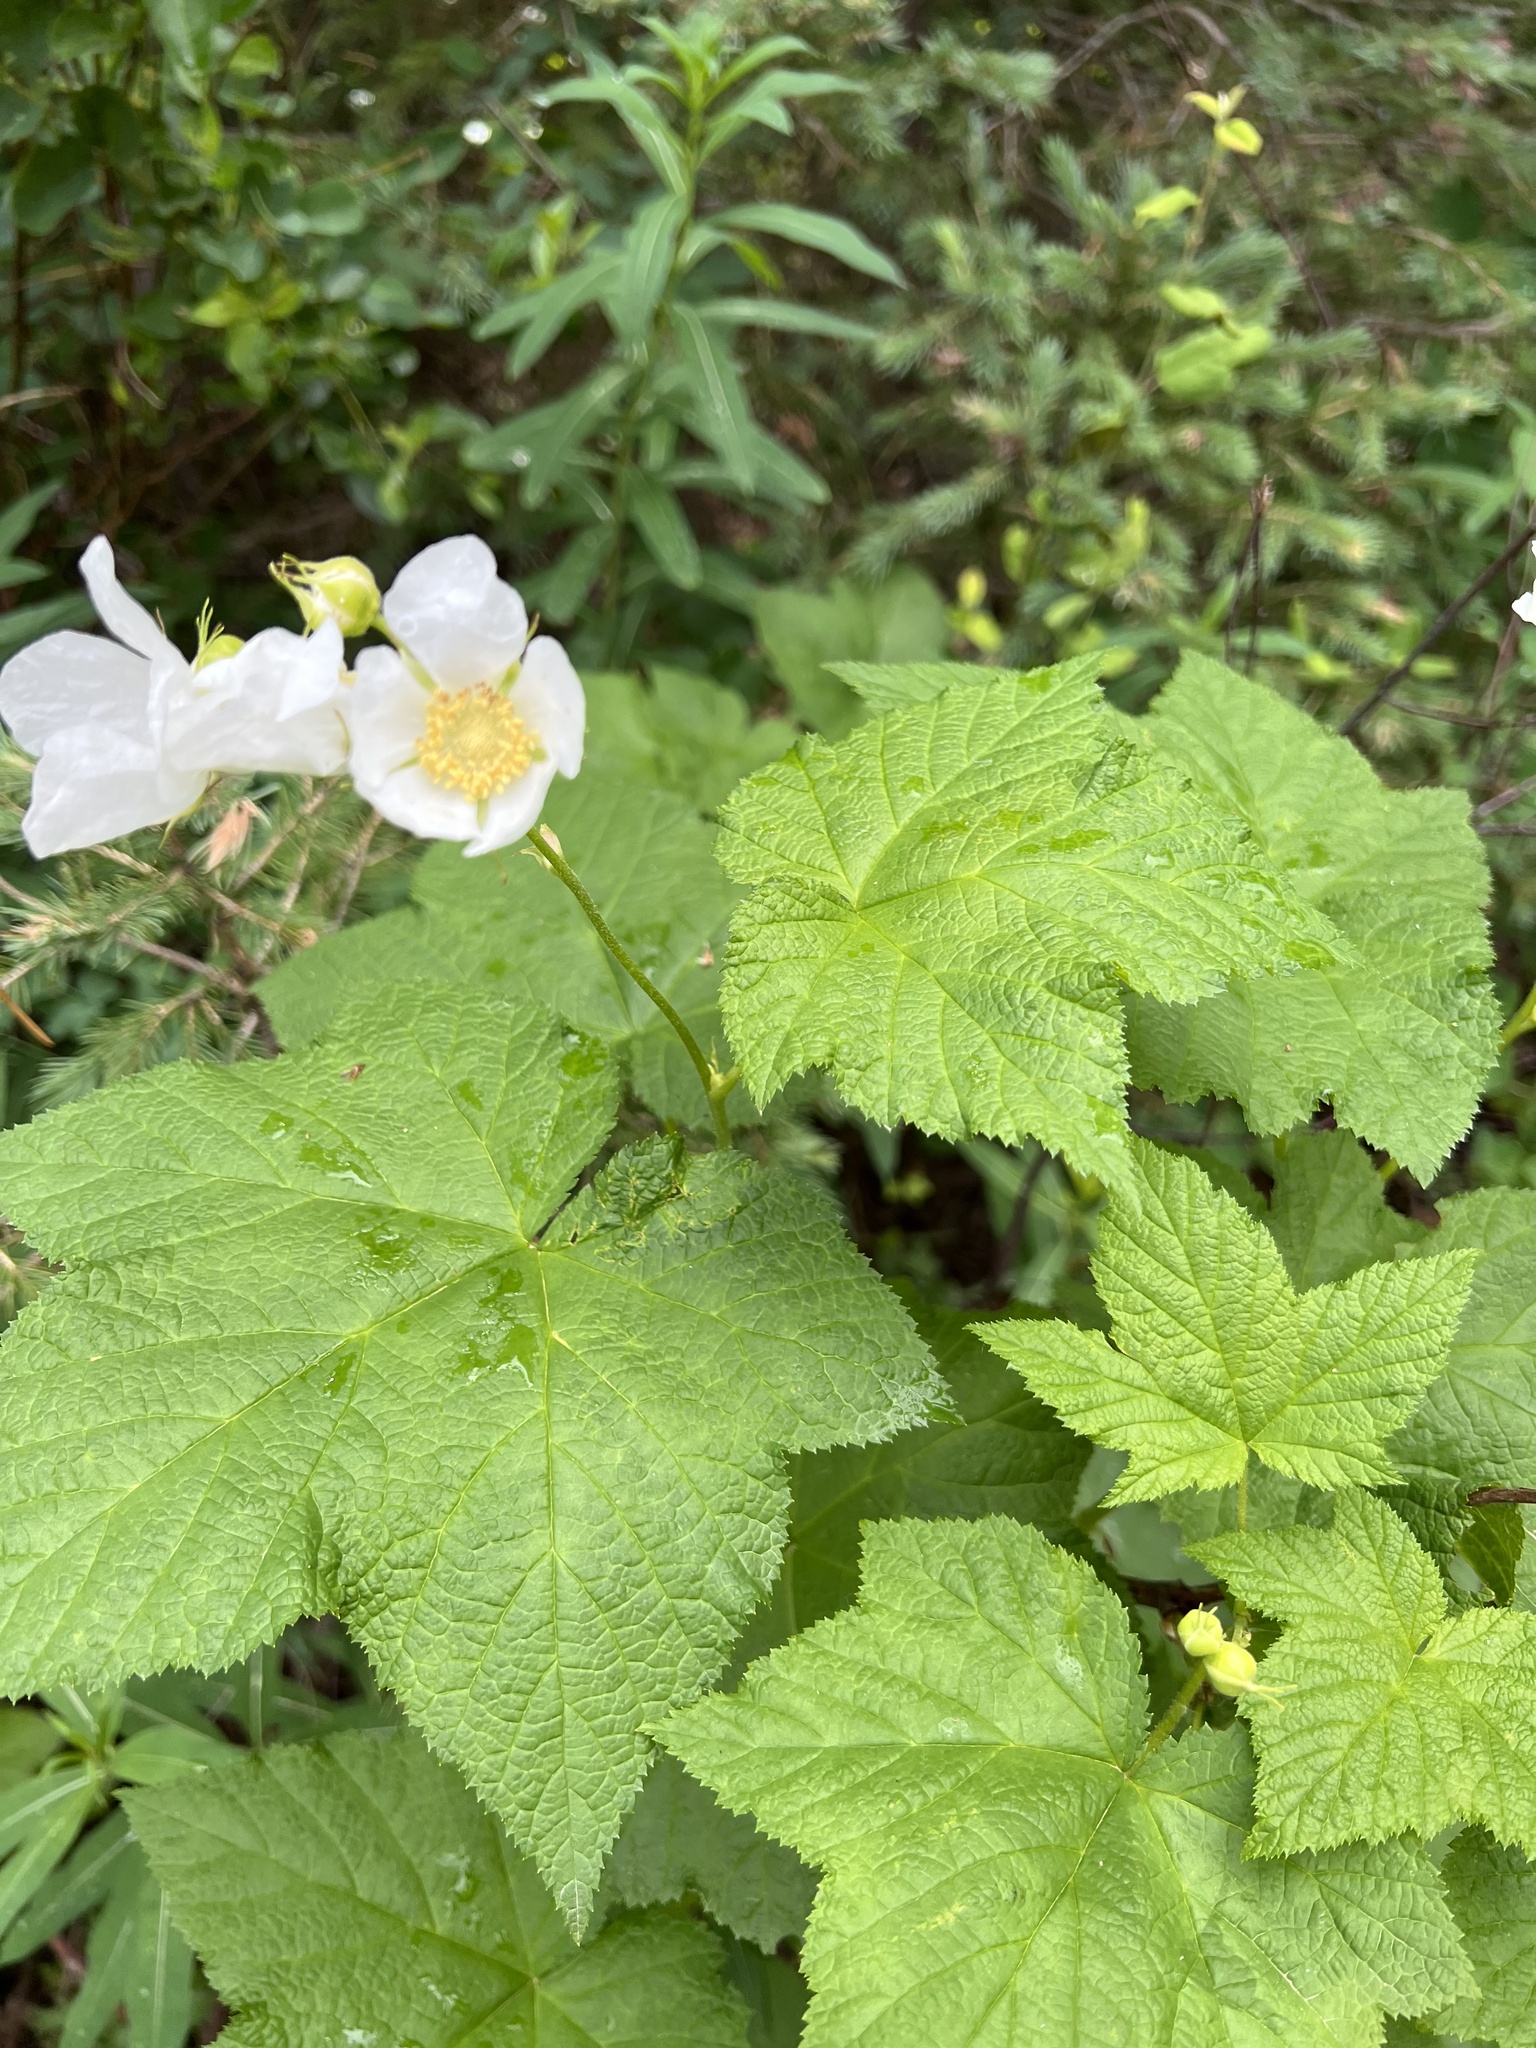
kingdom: Plantae
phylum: Tracheophyta
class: Magnoliopsida
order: Rosales
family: Rosaceae
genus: Rubus
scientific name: Rubus parviflorus
